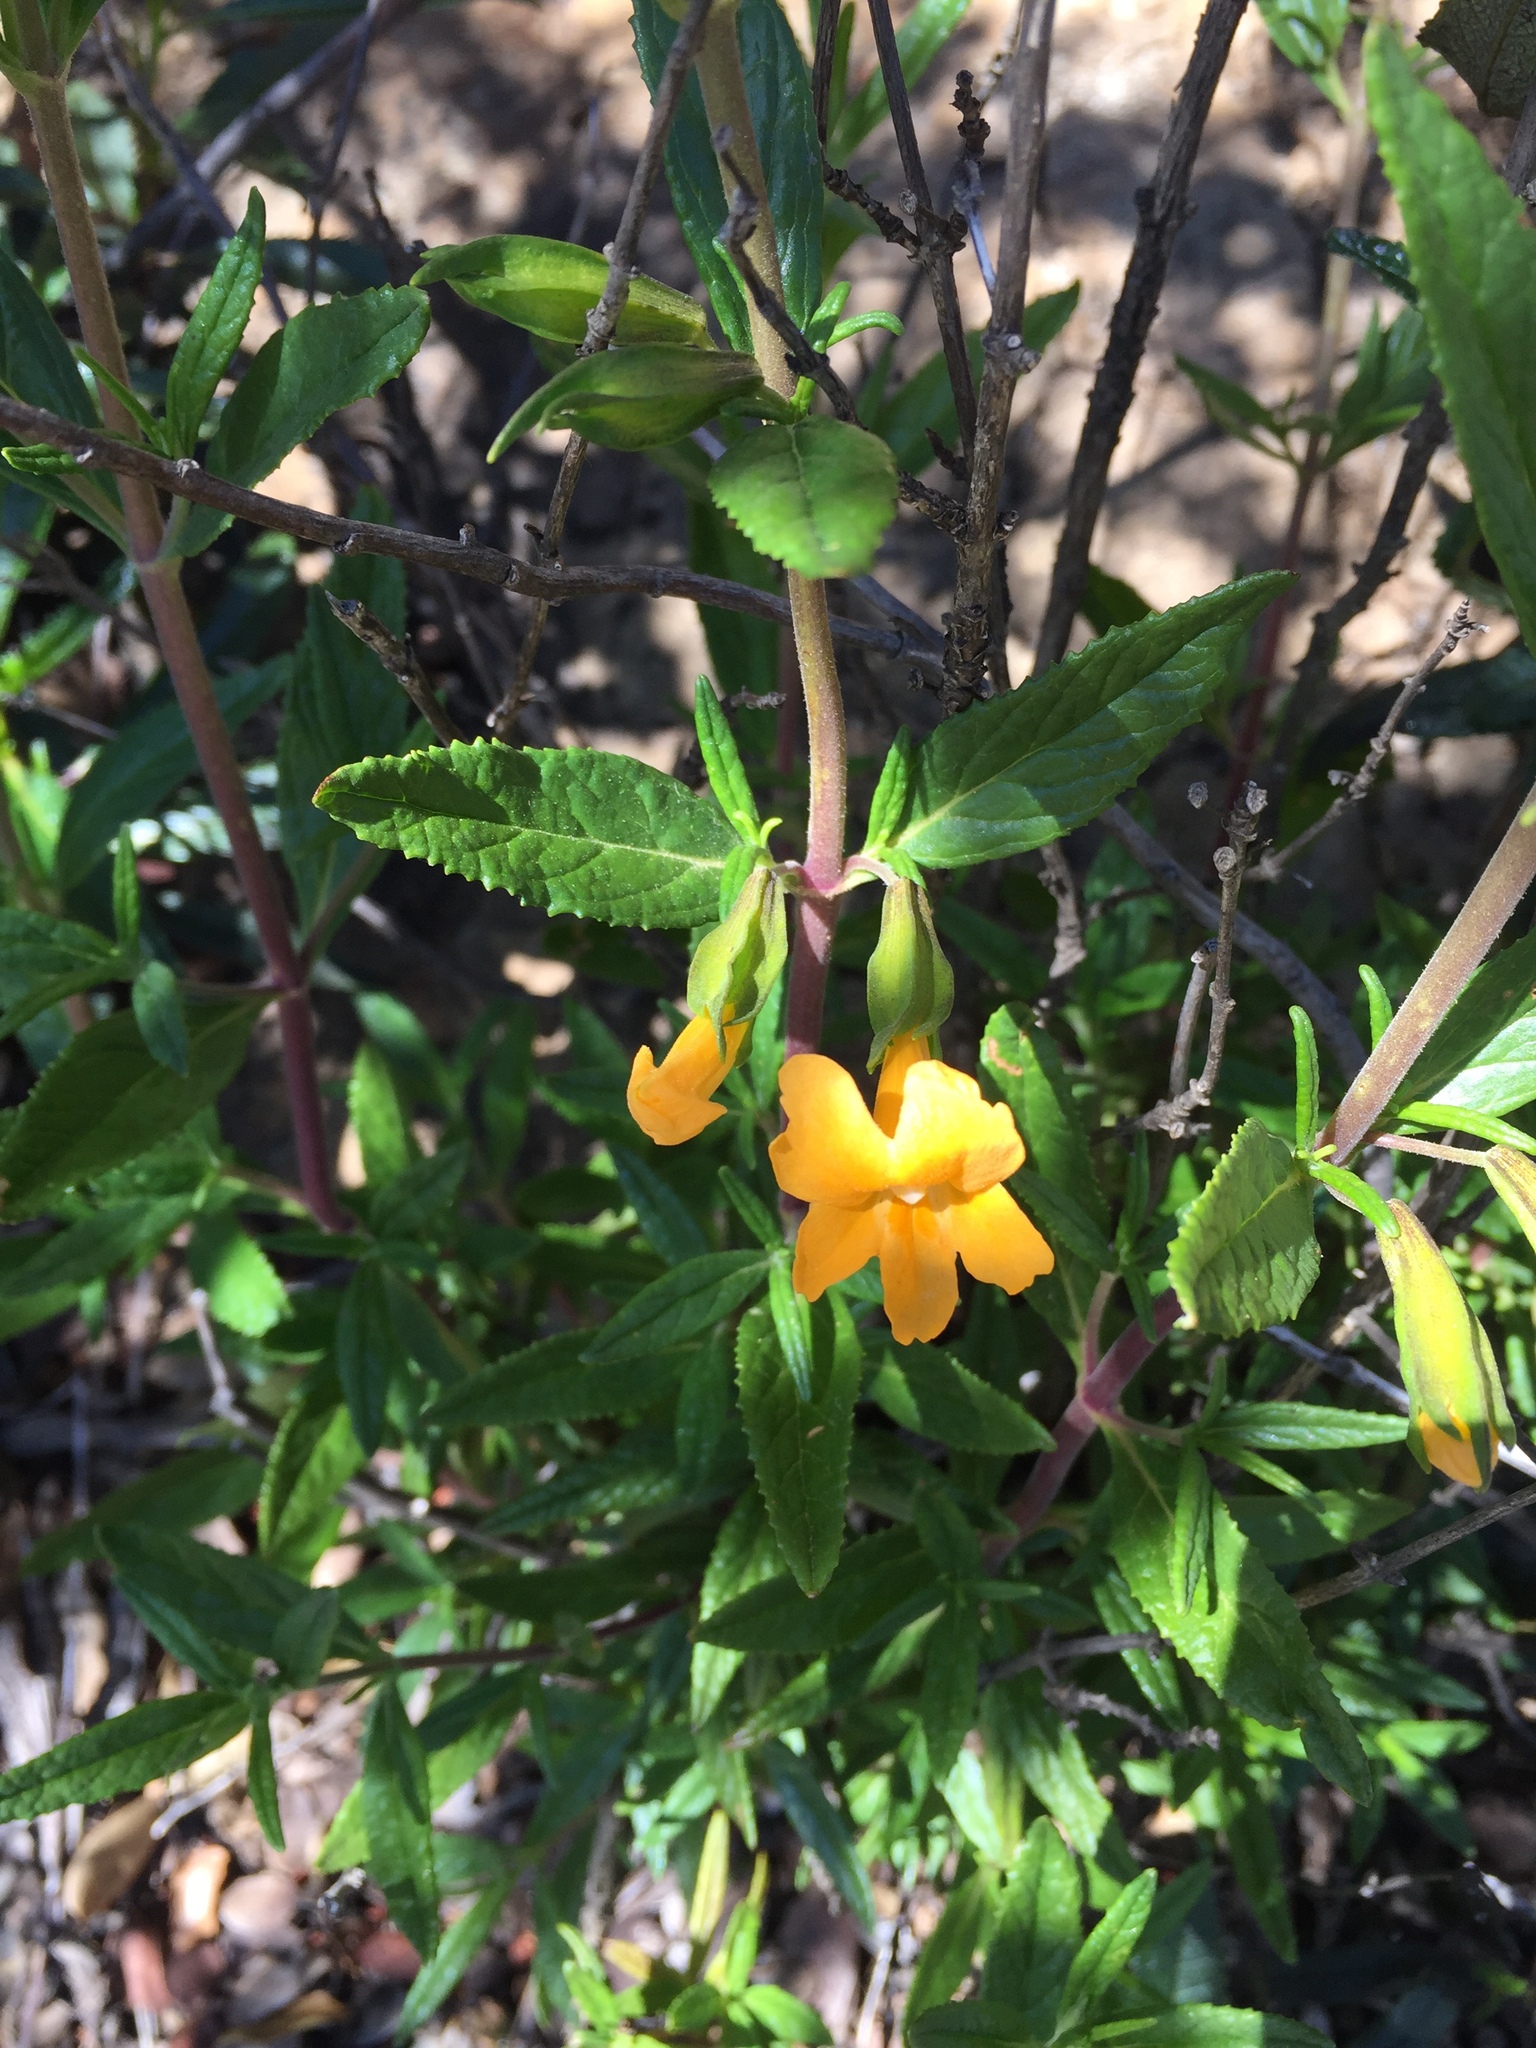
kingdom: Plantae
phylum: Tracheophyta
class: Magnoliopsida
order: Lamiales
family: Phrymaceae
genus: Diplacus
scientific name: Diplacus aurantiacus
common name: Bush monkey-flower
